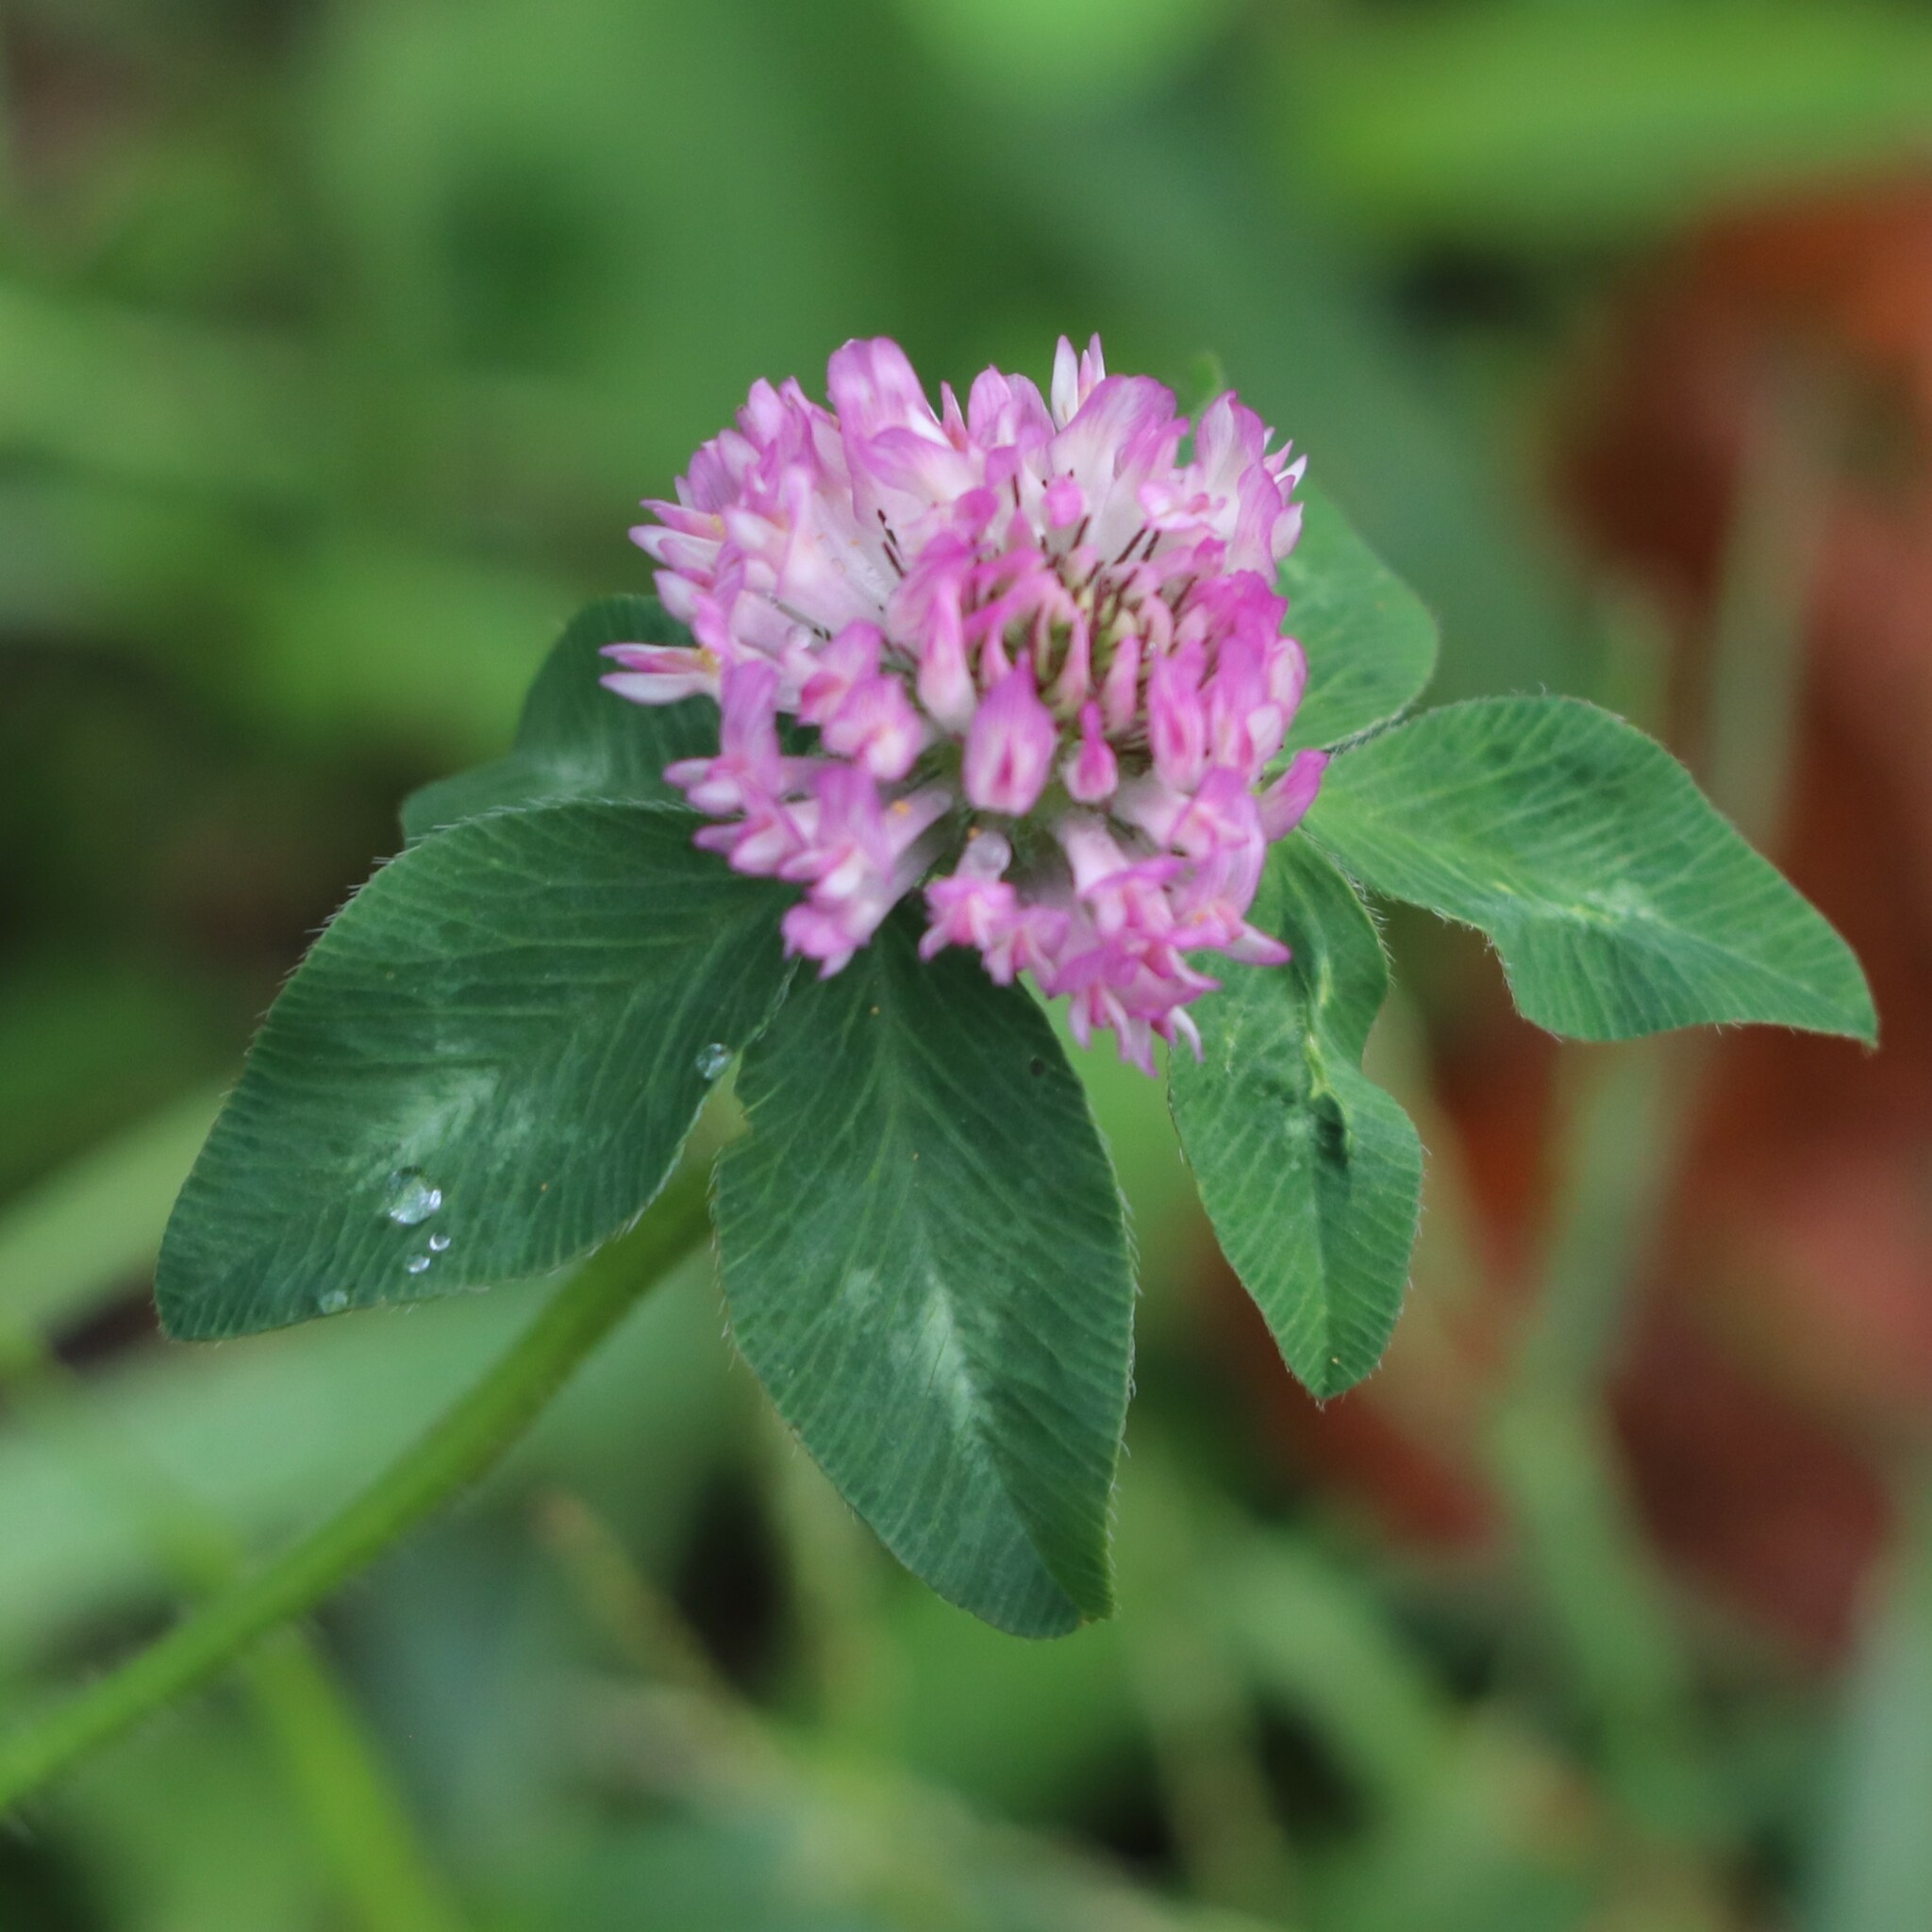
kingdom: Plantae
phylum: Tracheophyta
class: Magnoliopsida
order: Fabales
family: Fabaceae
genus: Trifolium
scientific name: Trifolium pratense
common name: Red clover
